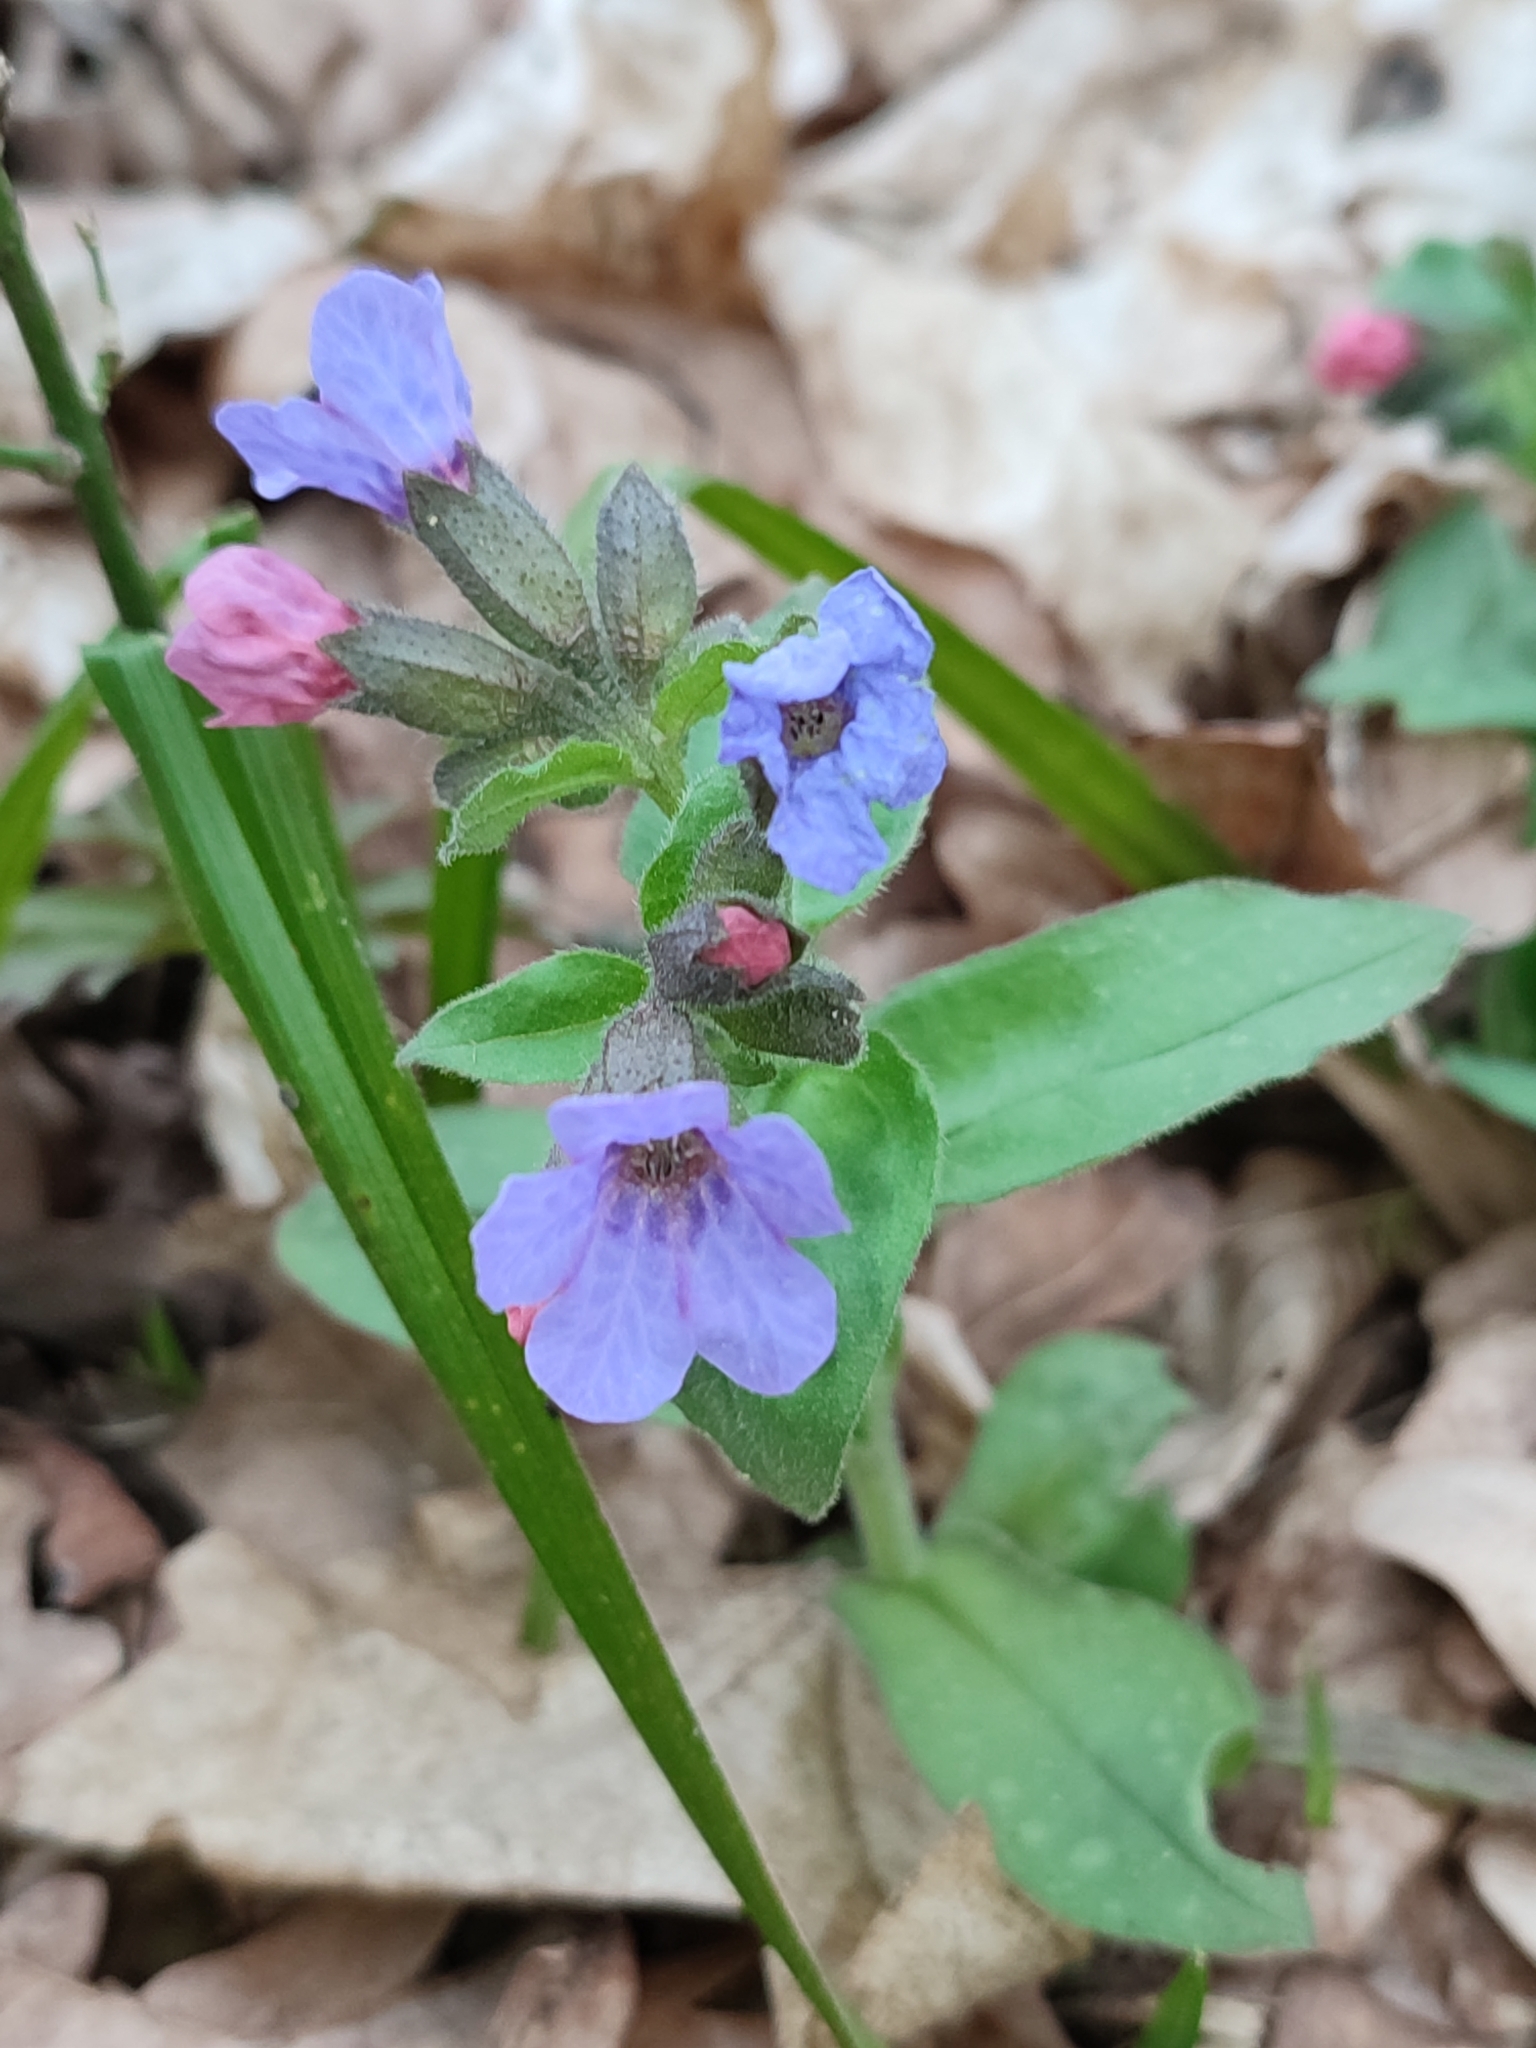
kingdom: Plantae
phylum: Tracheophyta
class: Magnoliopsida
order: Boraginales
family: Boraginaceae
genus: Pulmonaria
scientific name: Pulmonaria obscura
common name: Suffolk lungwort
